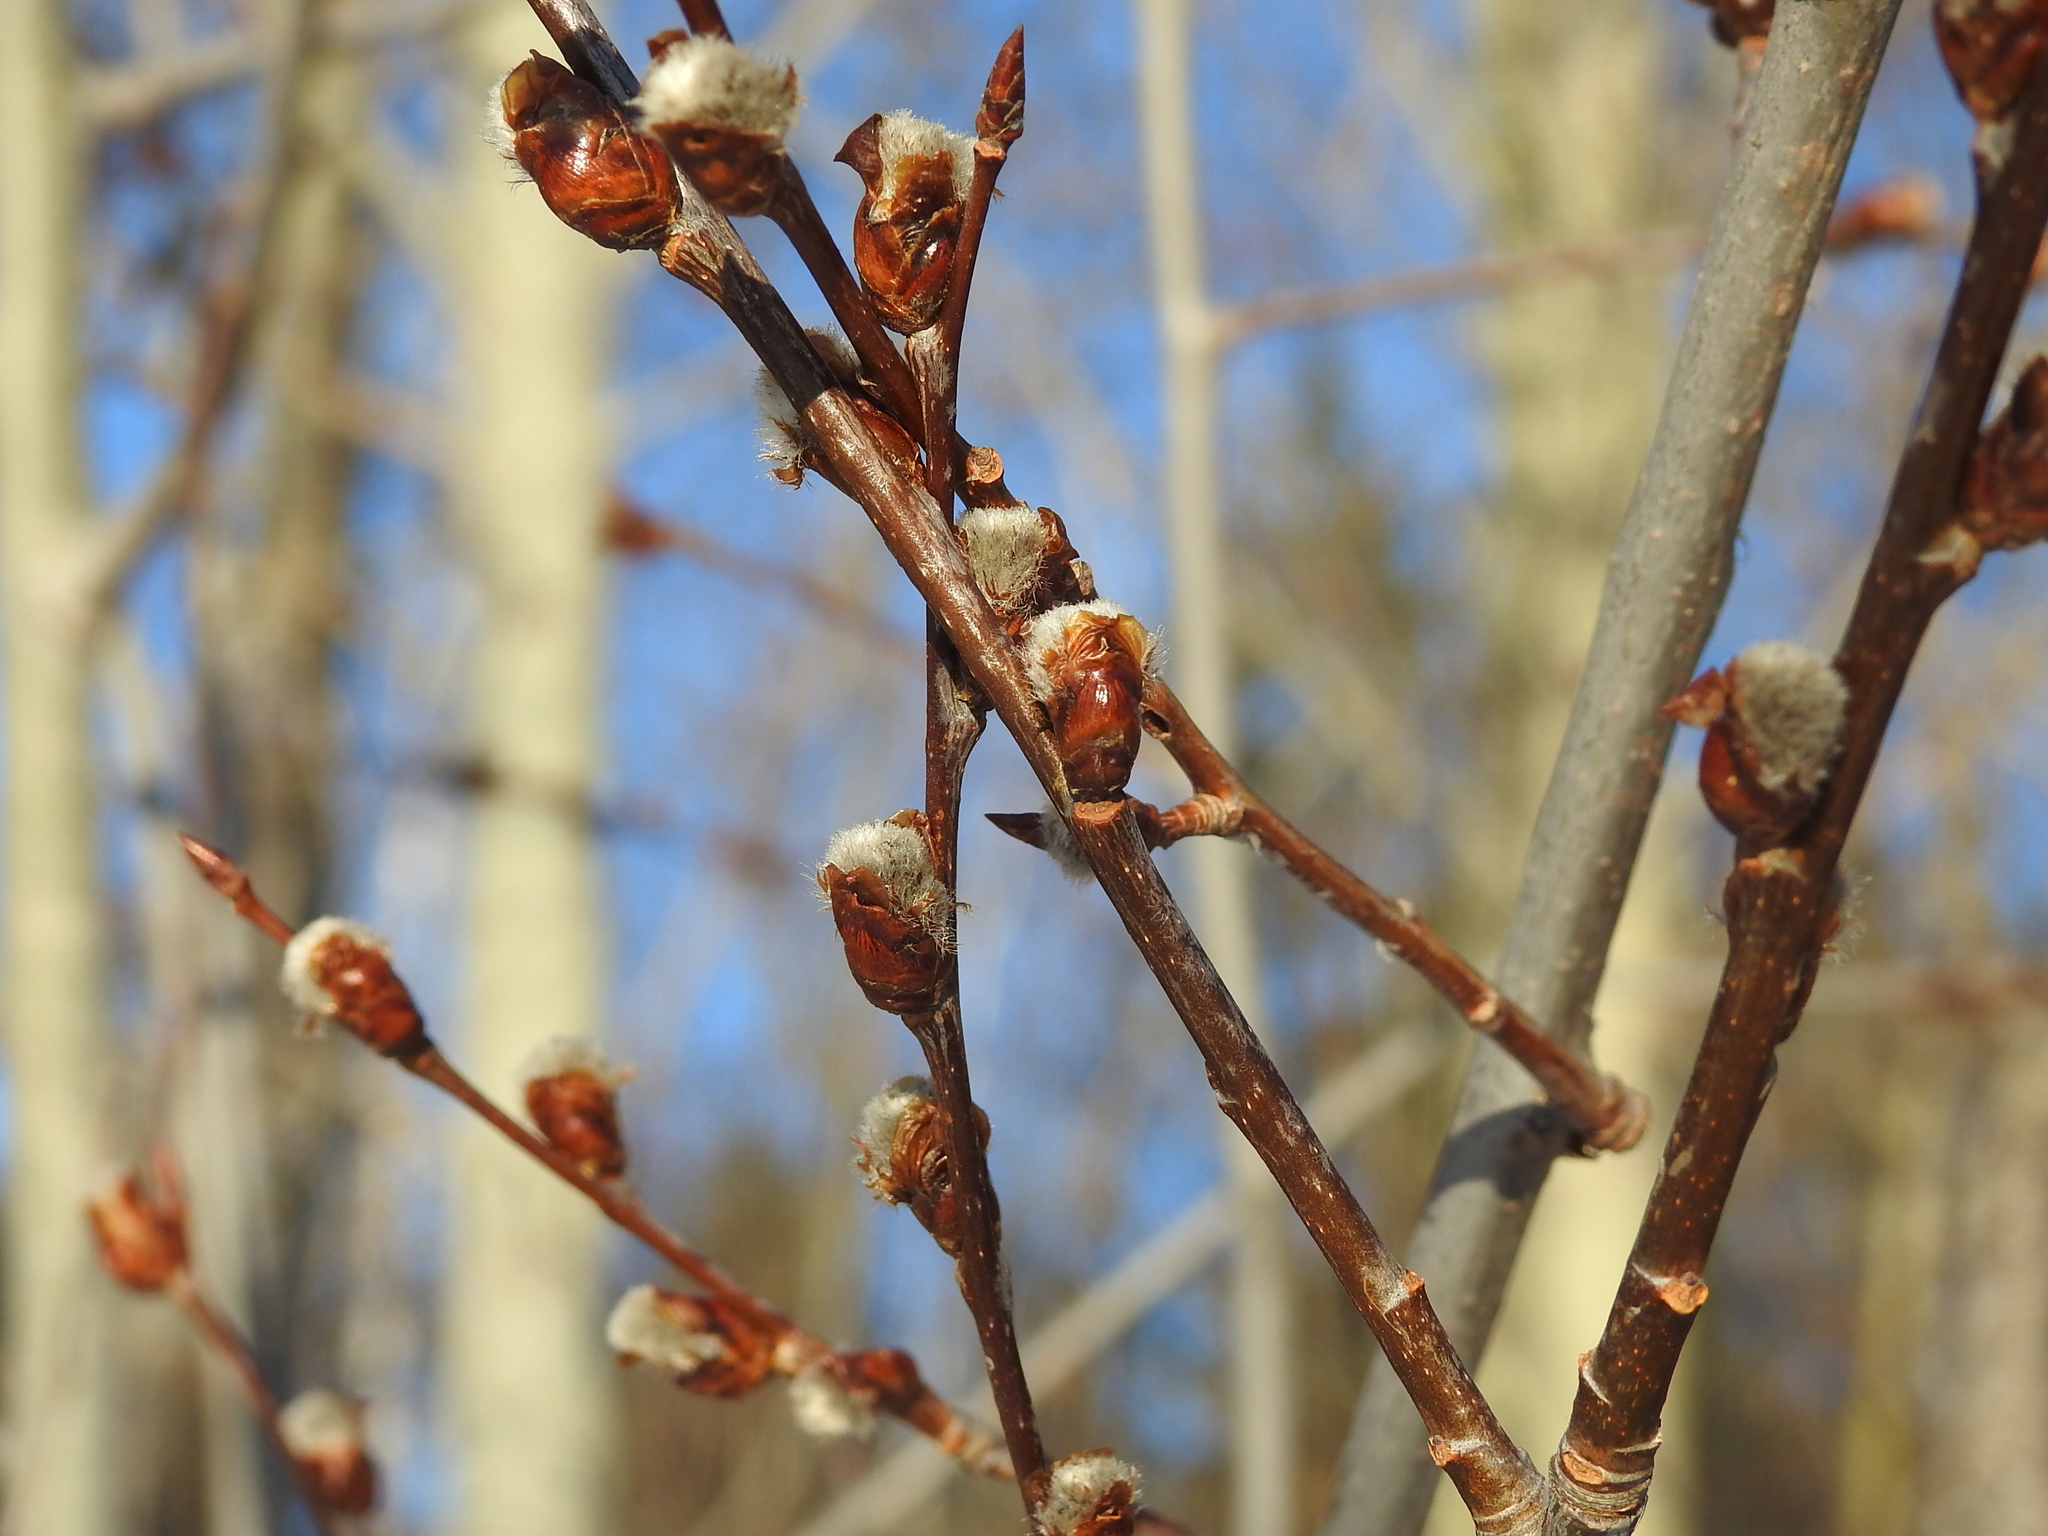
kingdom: Plantae
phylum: Tracheophyta
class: Magnoliopsida
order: Malpighiales
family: Salicaceae
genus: Populus
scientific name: Populus tremula
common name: European aspen
